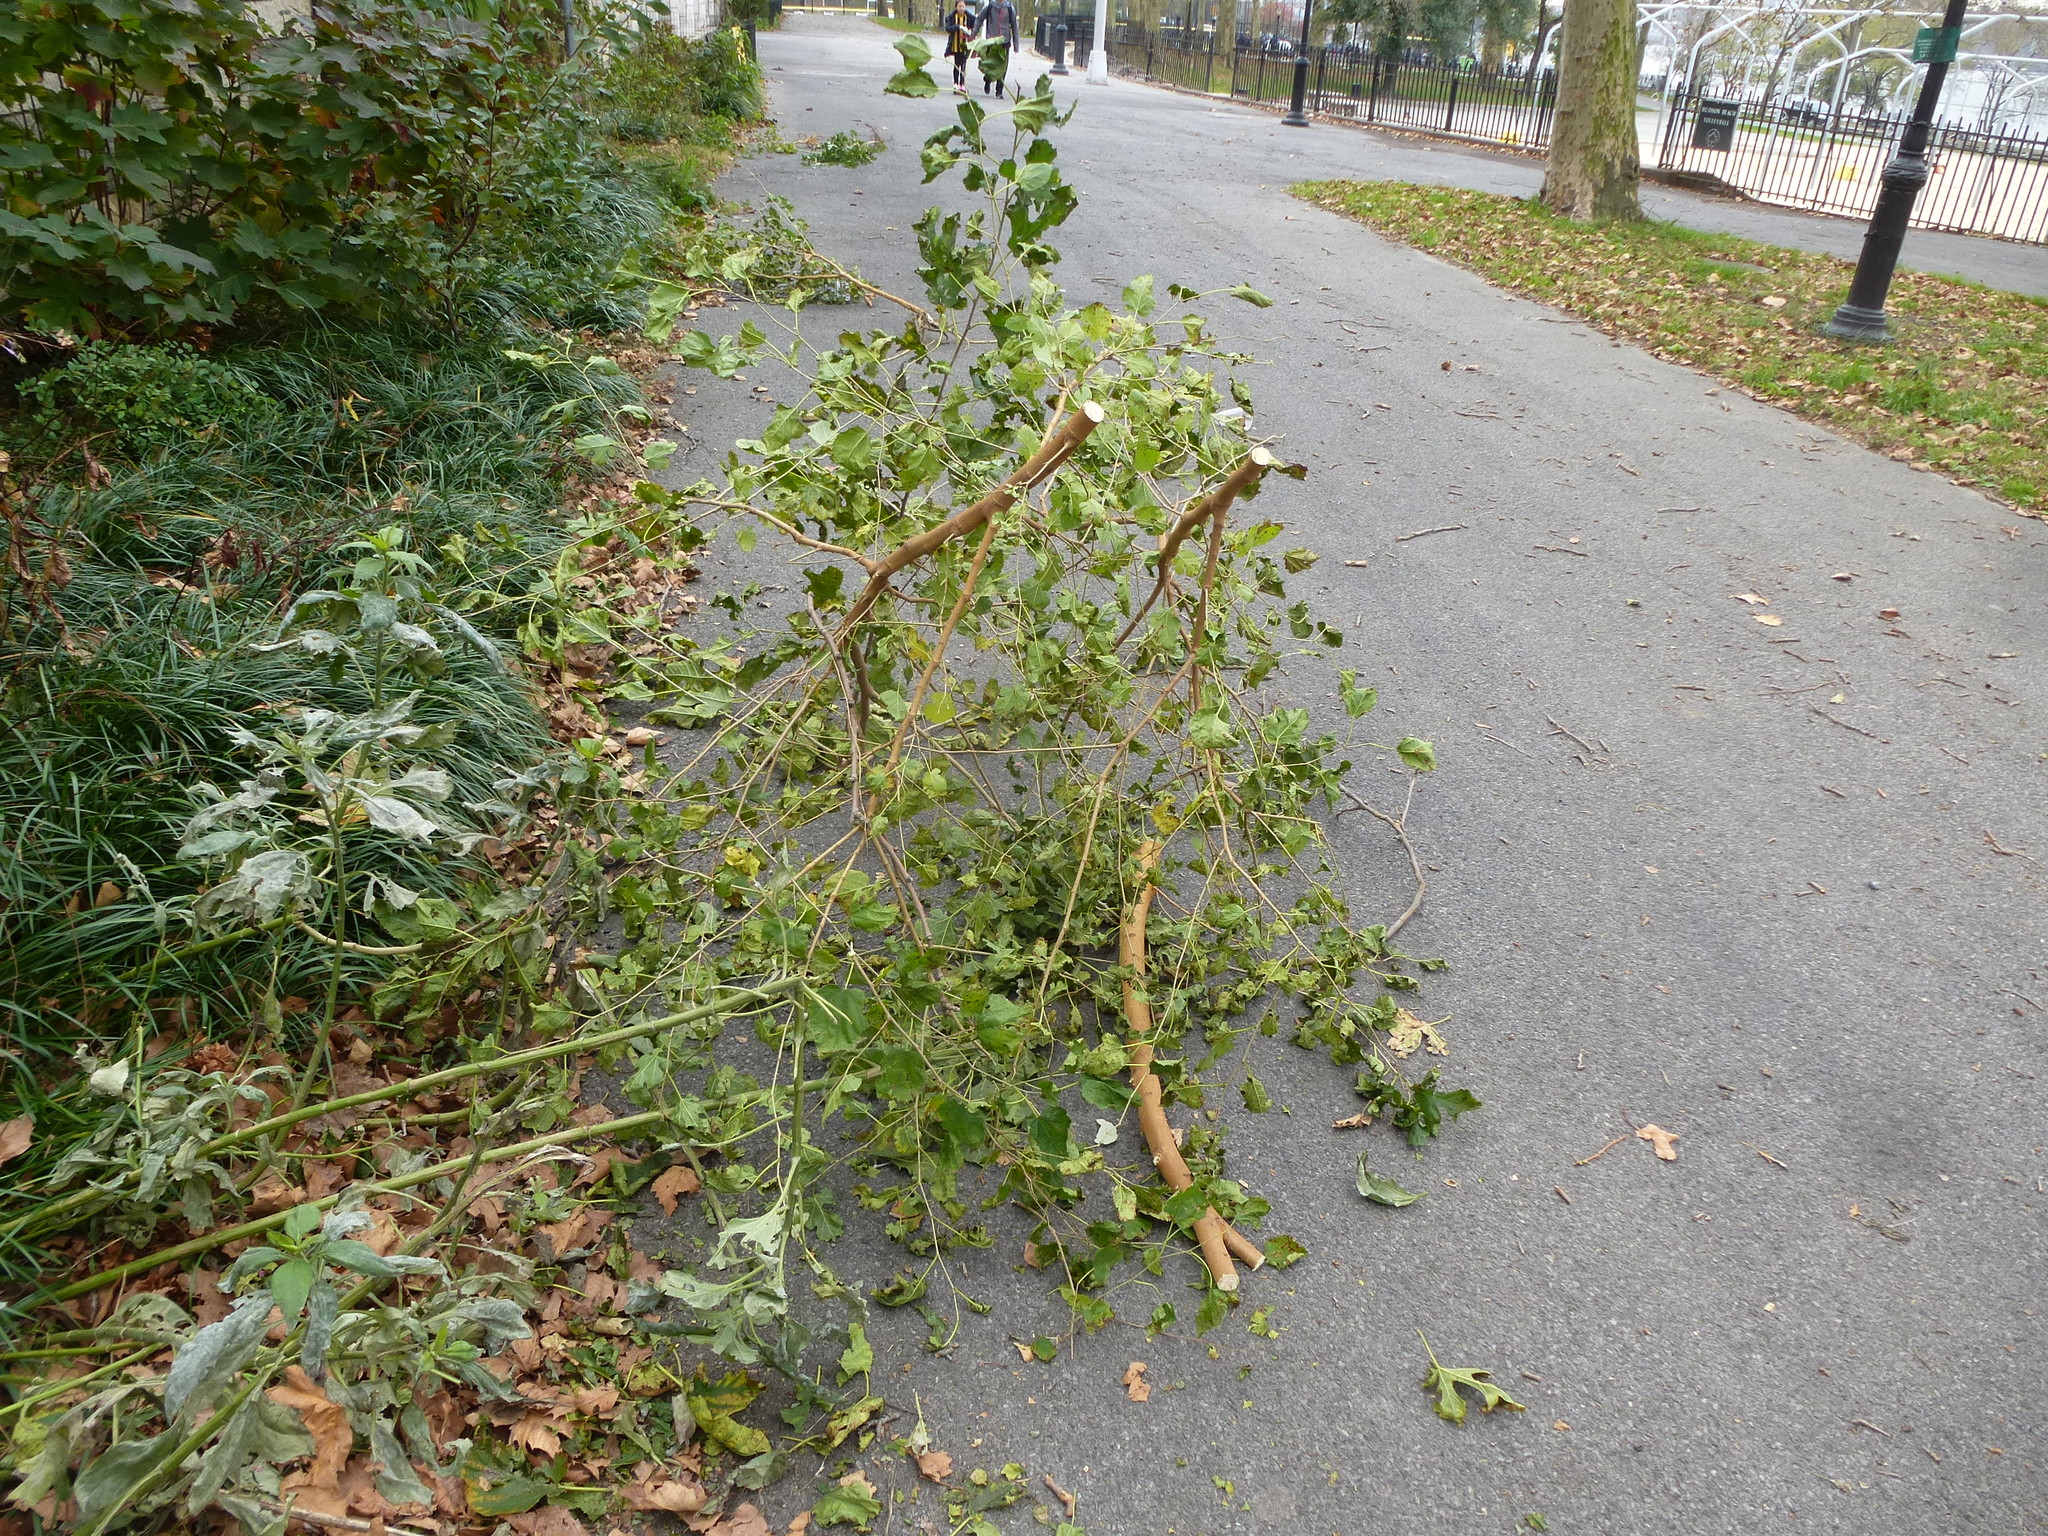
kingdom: Plantae
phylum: Tracheophyta
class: Magnoliopsida
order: Rosales
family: Moraceae
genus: Morus
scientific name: Morus alba
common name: White mulberry
